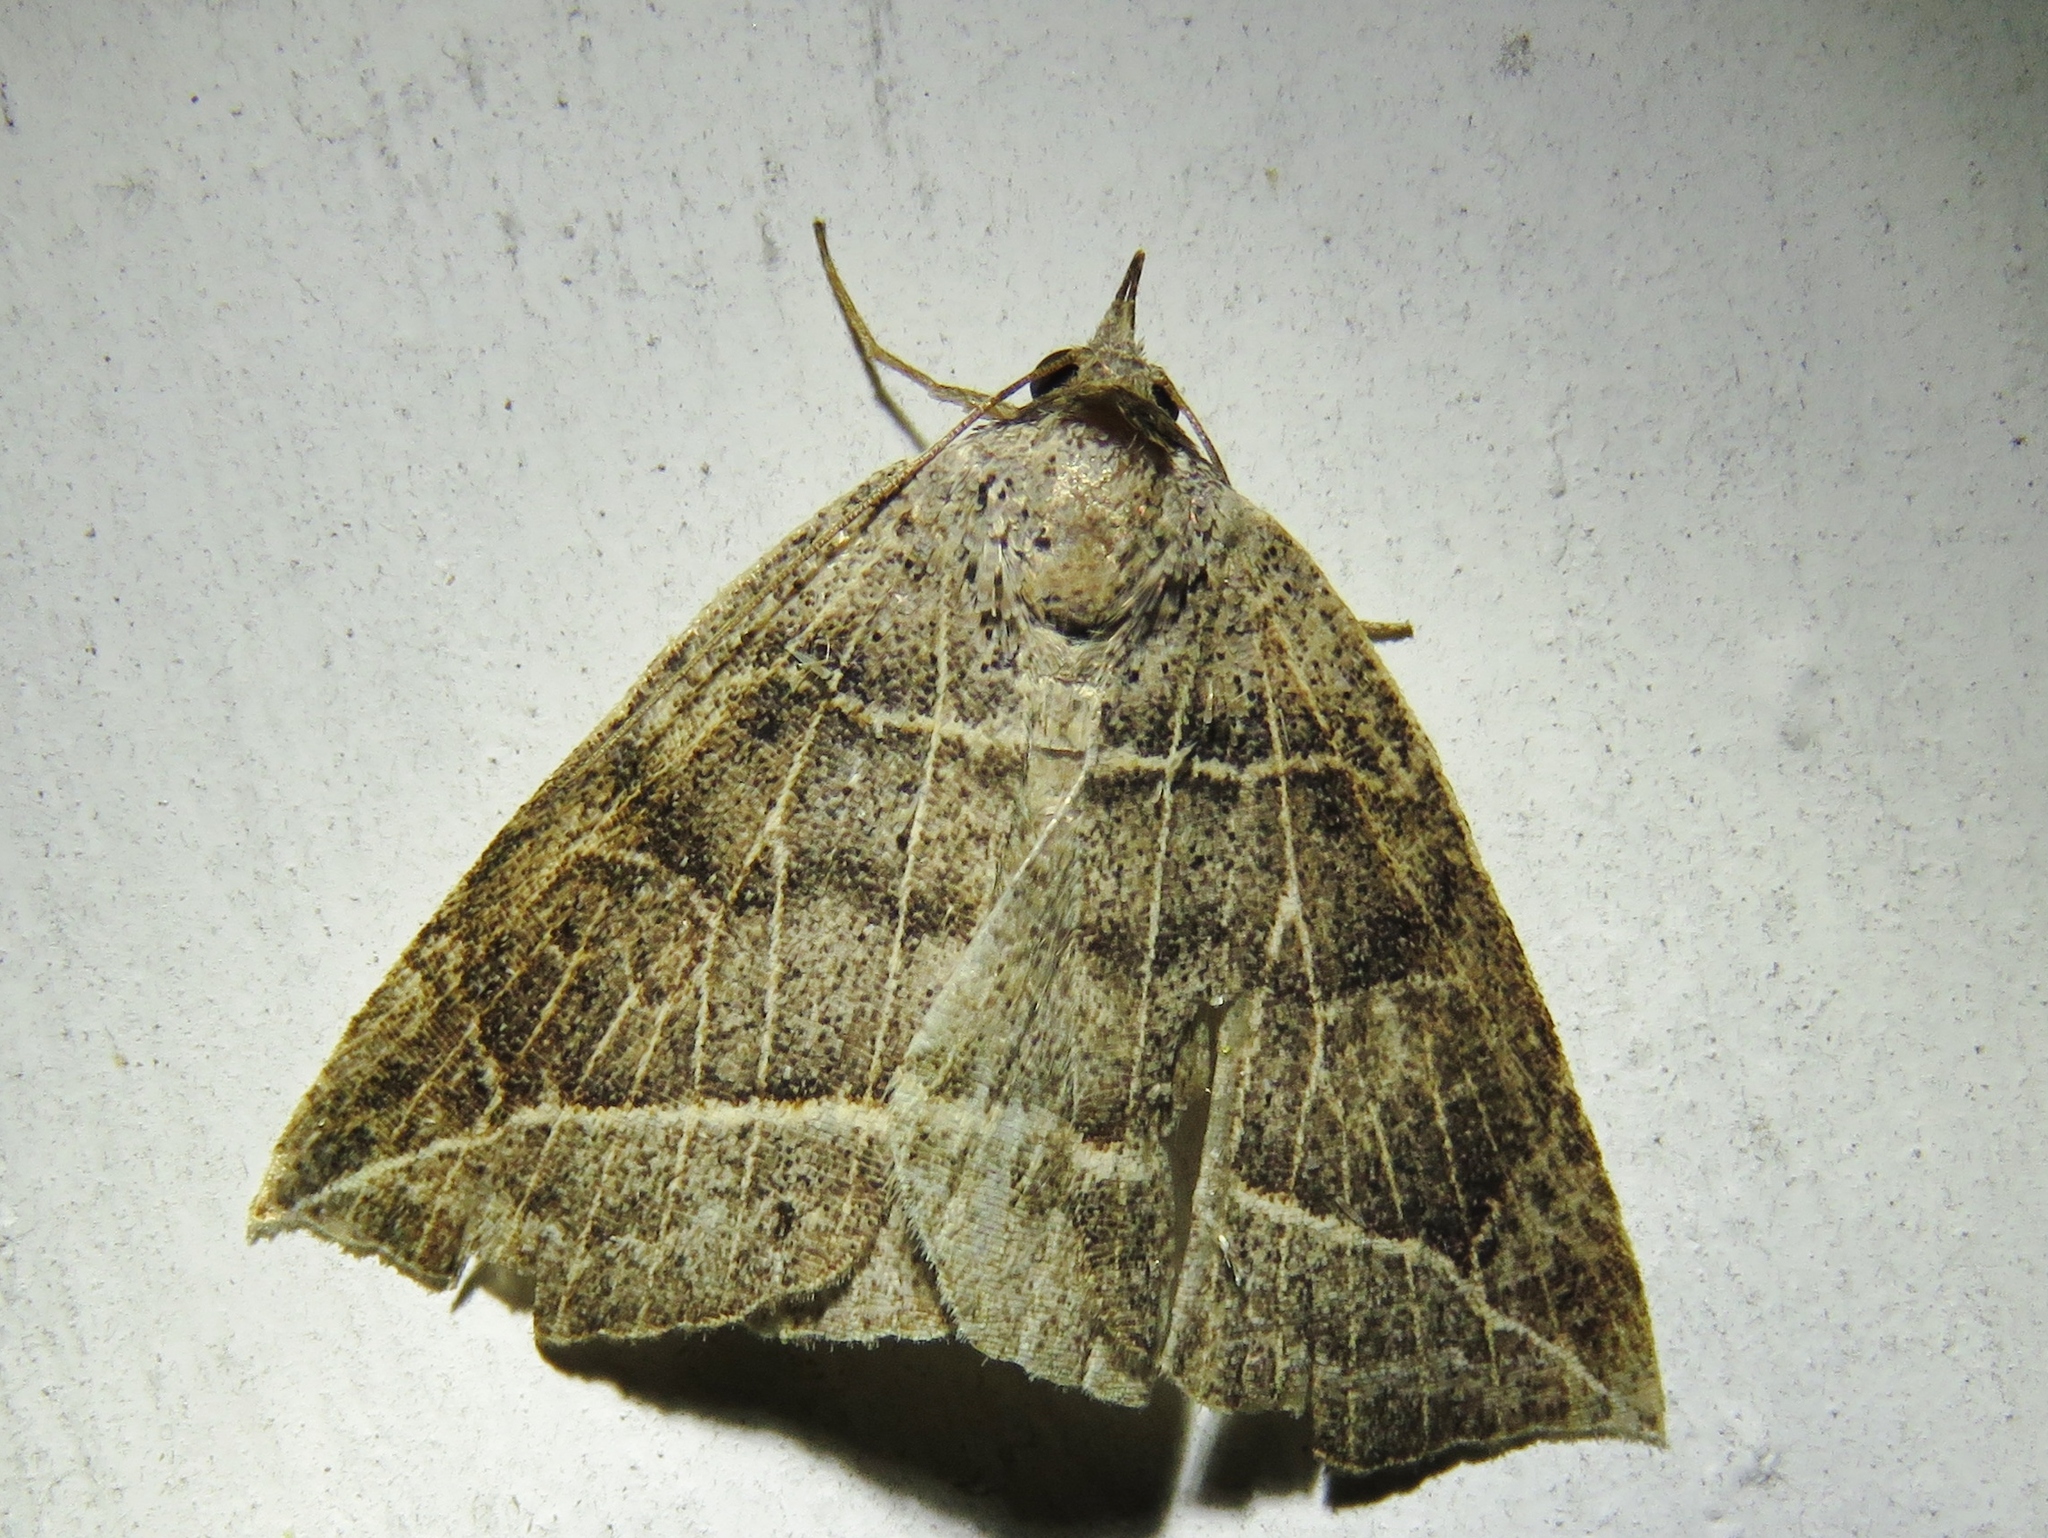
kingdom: Animalia
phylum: Arthropoda
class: Insecta
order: Lepidoptera
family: Erebidae
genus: Isogona
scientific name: Isogona tenuis
